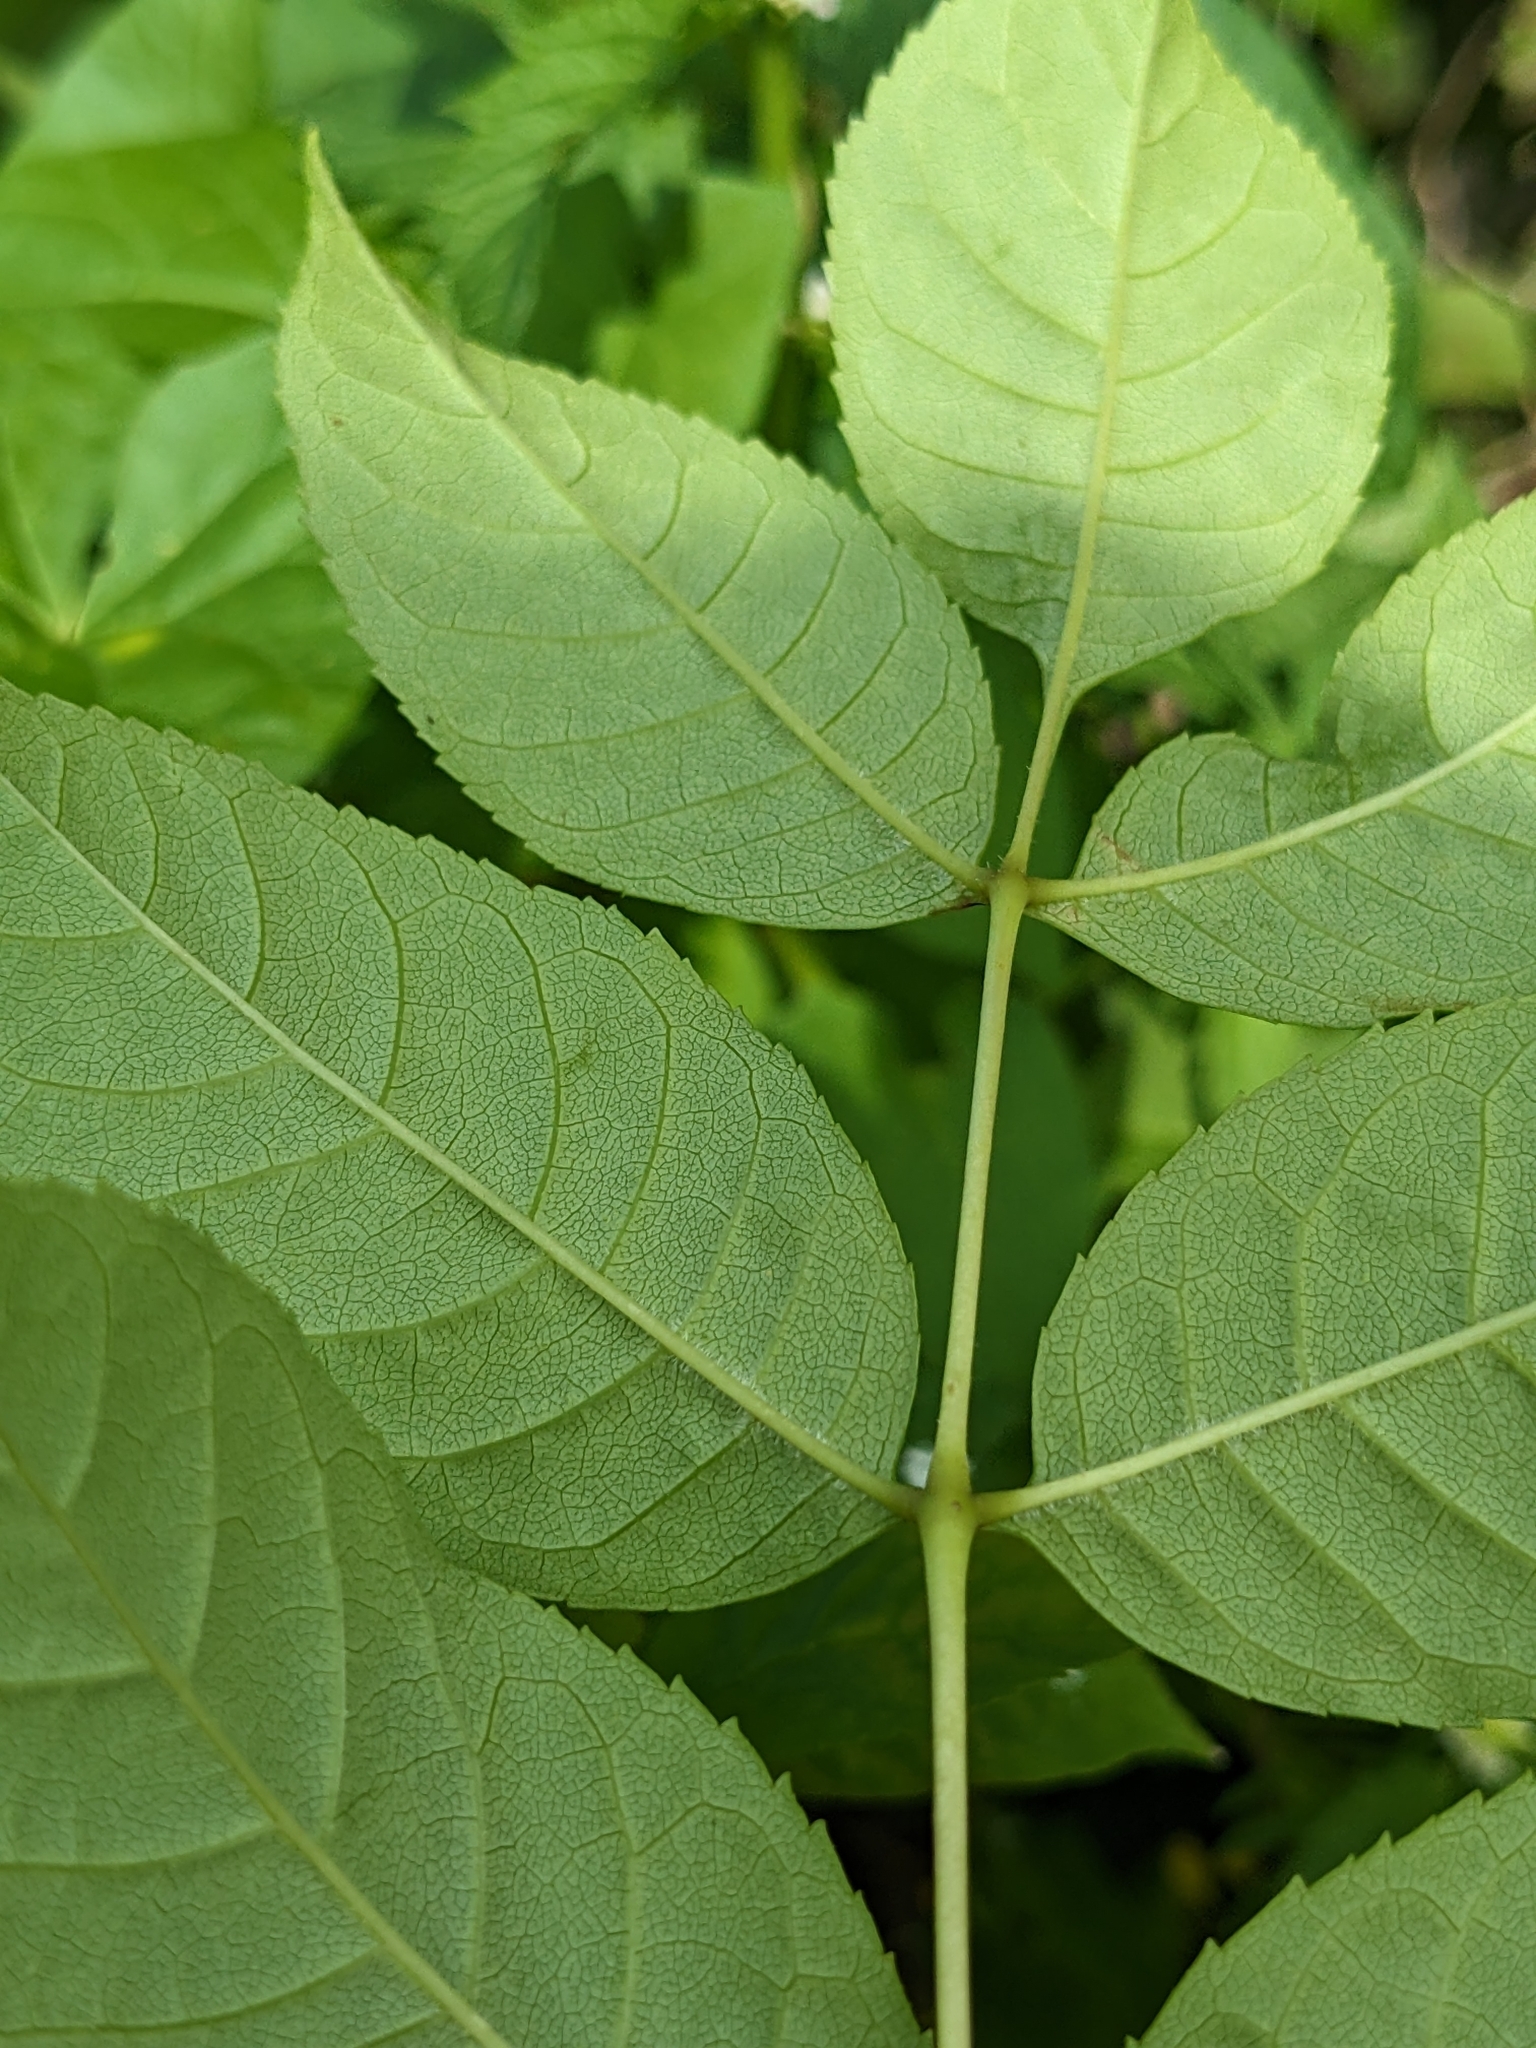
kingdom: Plantae
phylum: Tracheophyta
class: Magnoliopsida
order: Lamiales
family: Oleaceae
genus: Fraxinus
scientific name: Fraxinus excelsior
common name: European ash
